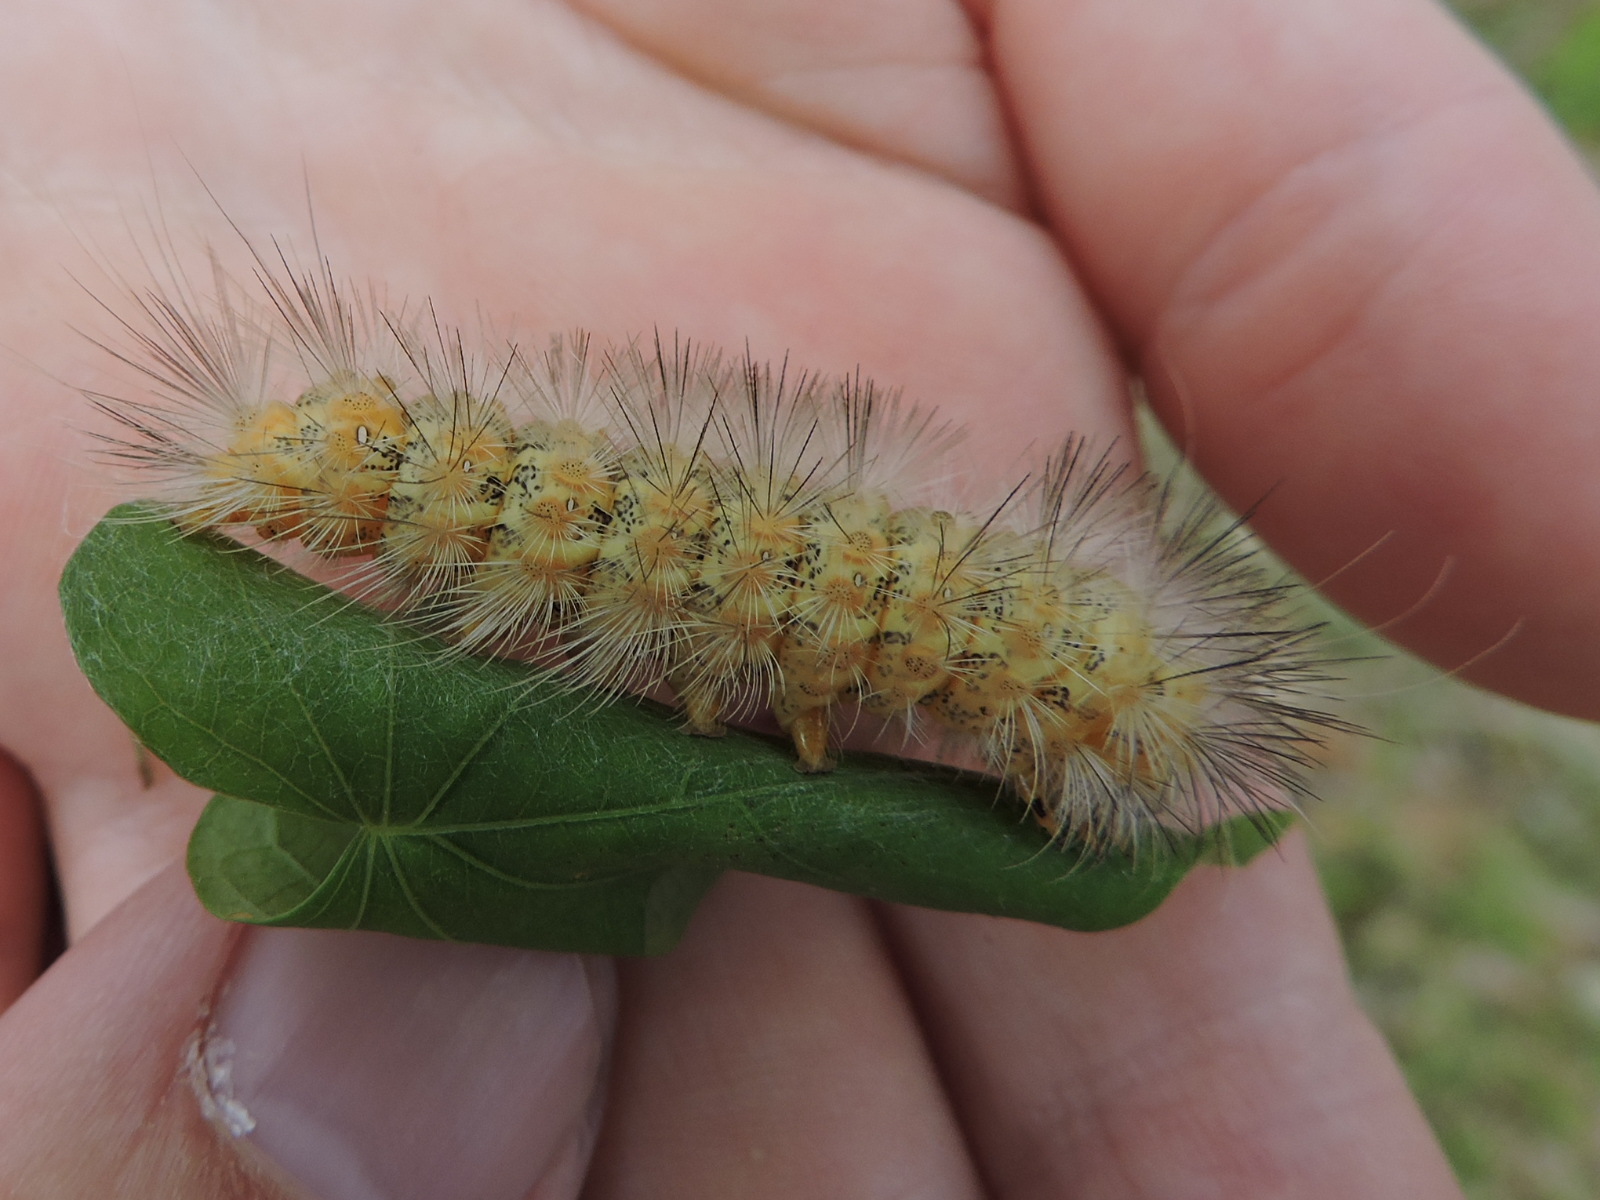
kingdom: Animalia
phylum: Arthropoda
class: Insecta
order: Lepidoptera
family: Erebidae
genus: Estigmene
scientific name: Estigmene acrea
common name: Salt marsh moth
